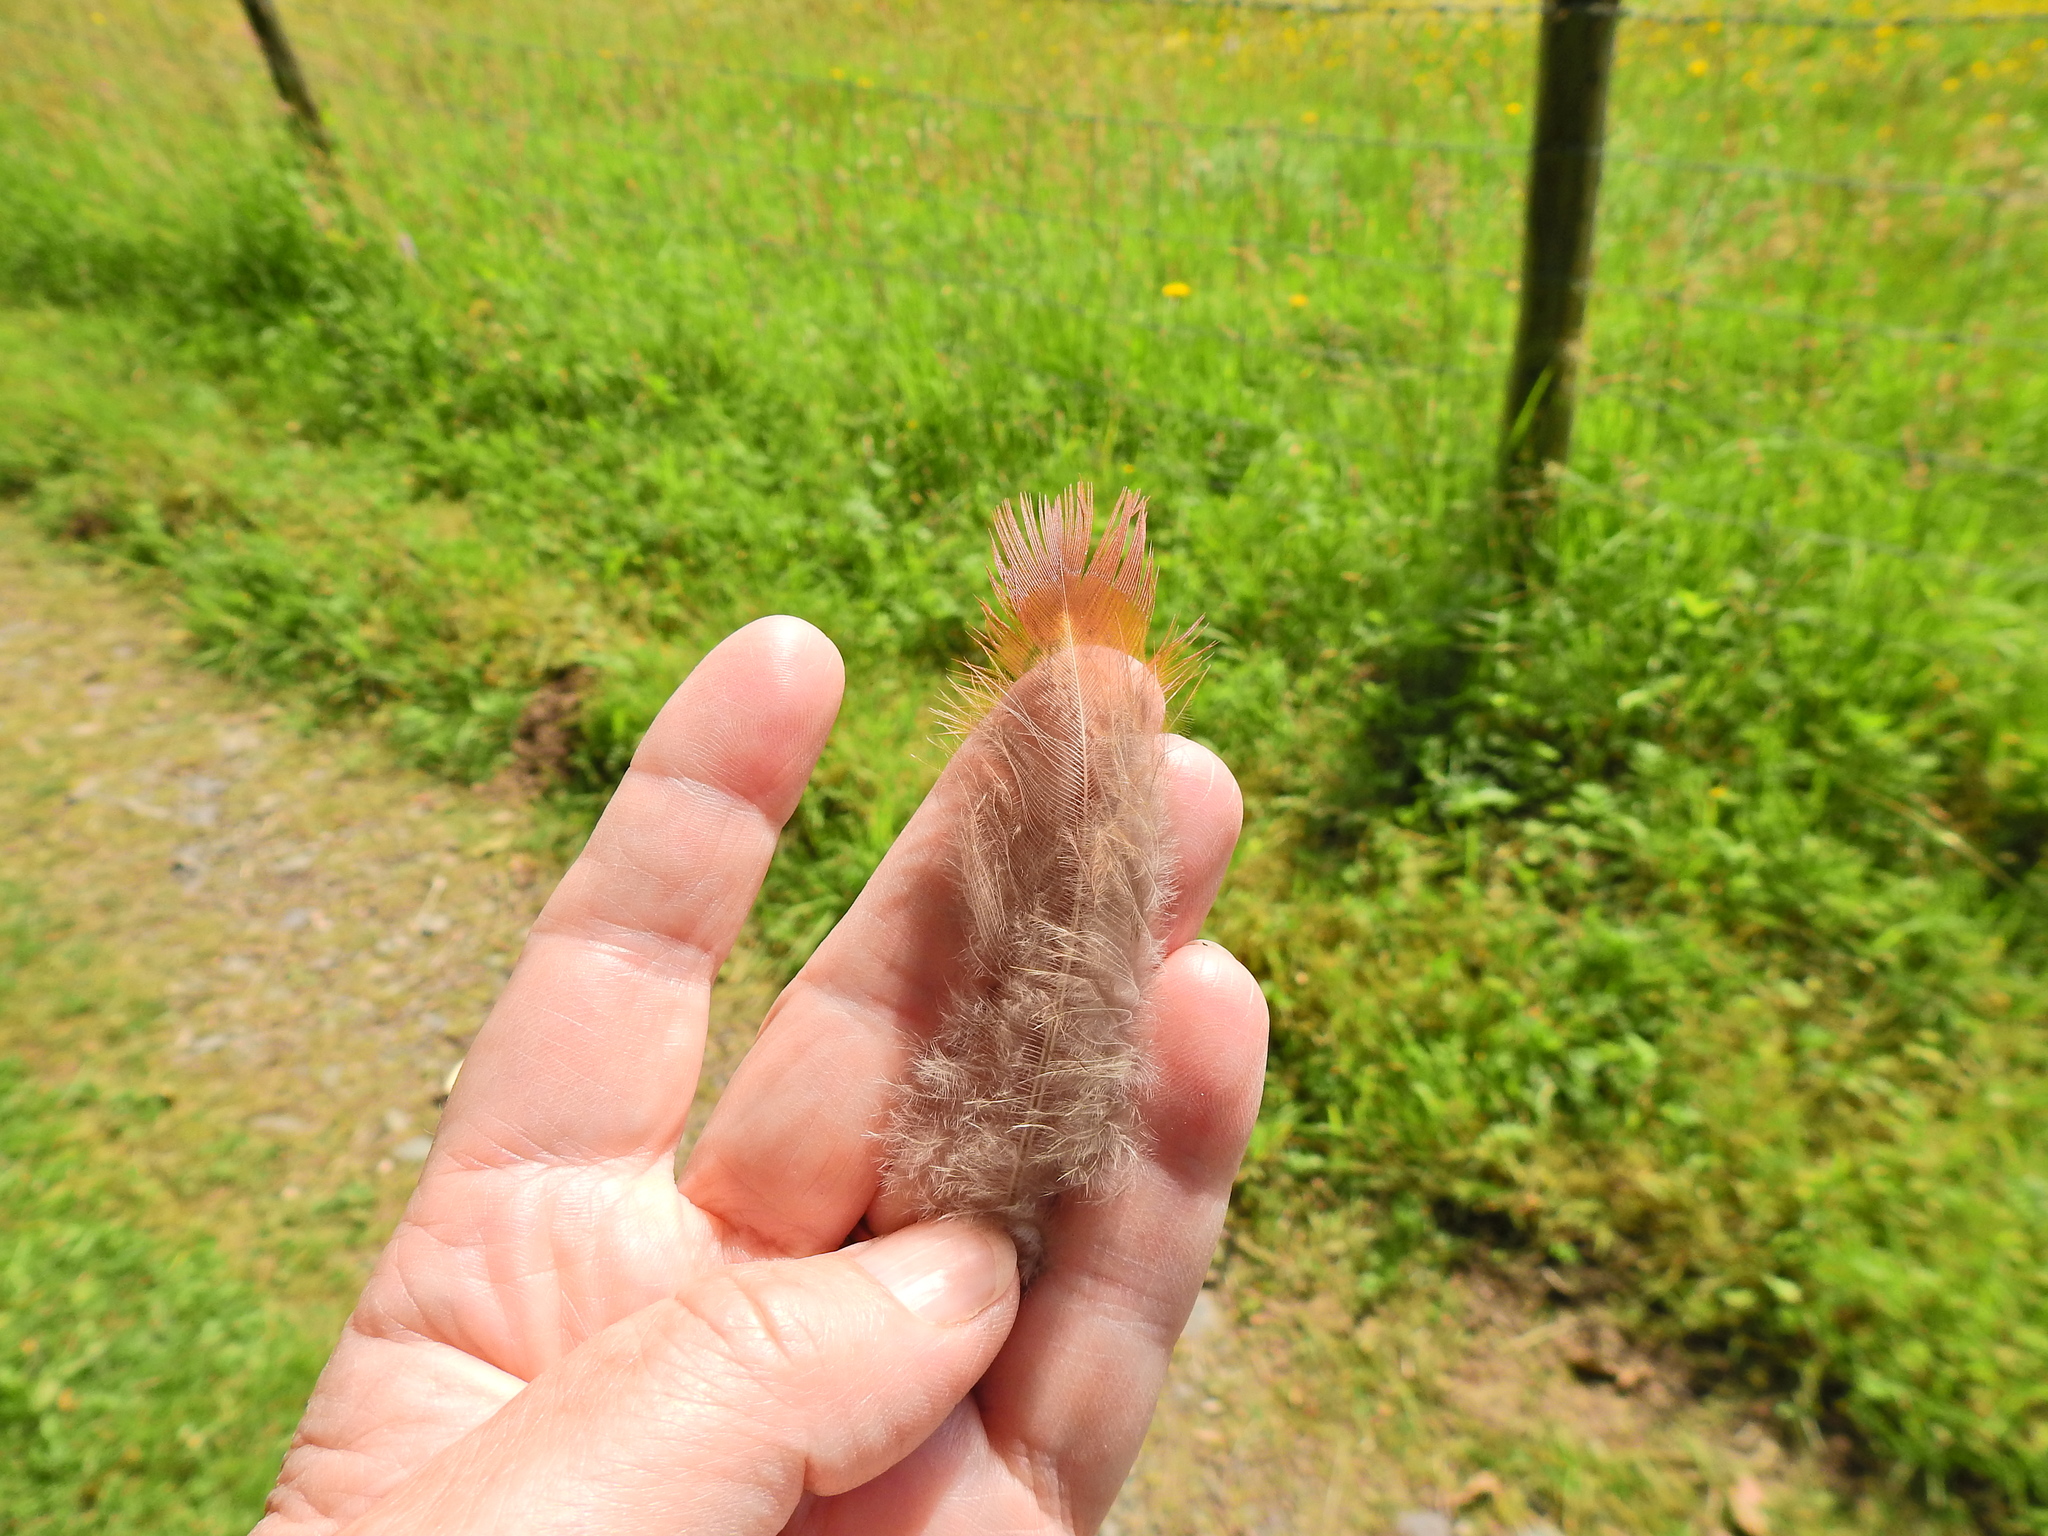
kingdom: Animalia
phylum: Chordata
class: Aves
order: Galliformes
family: Phasianidae
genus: Phasianus
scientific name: Phasianus colchicus
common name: Common pheasant
